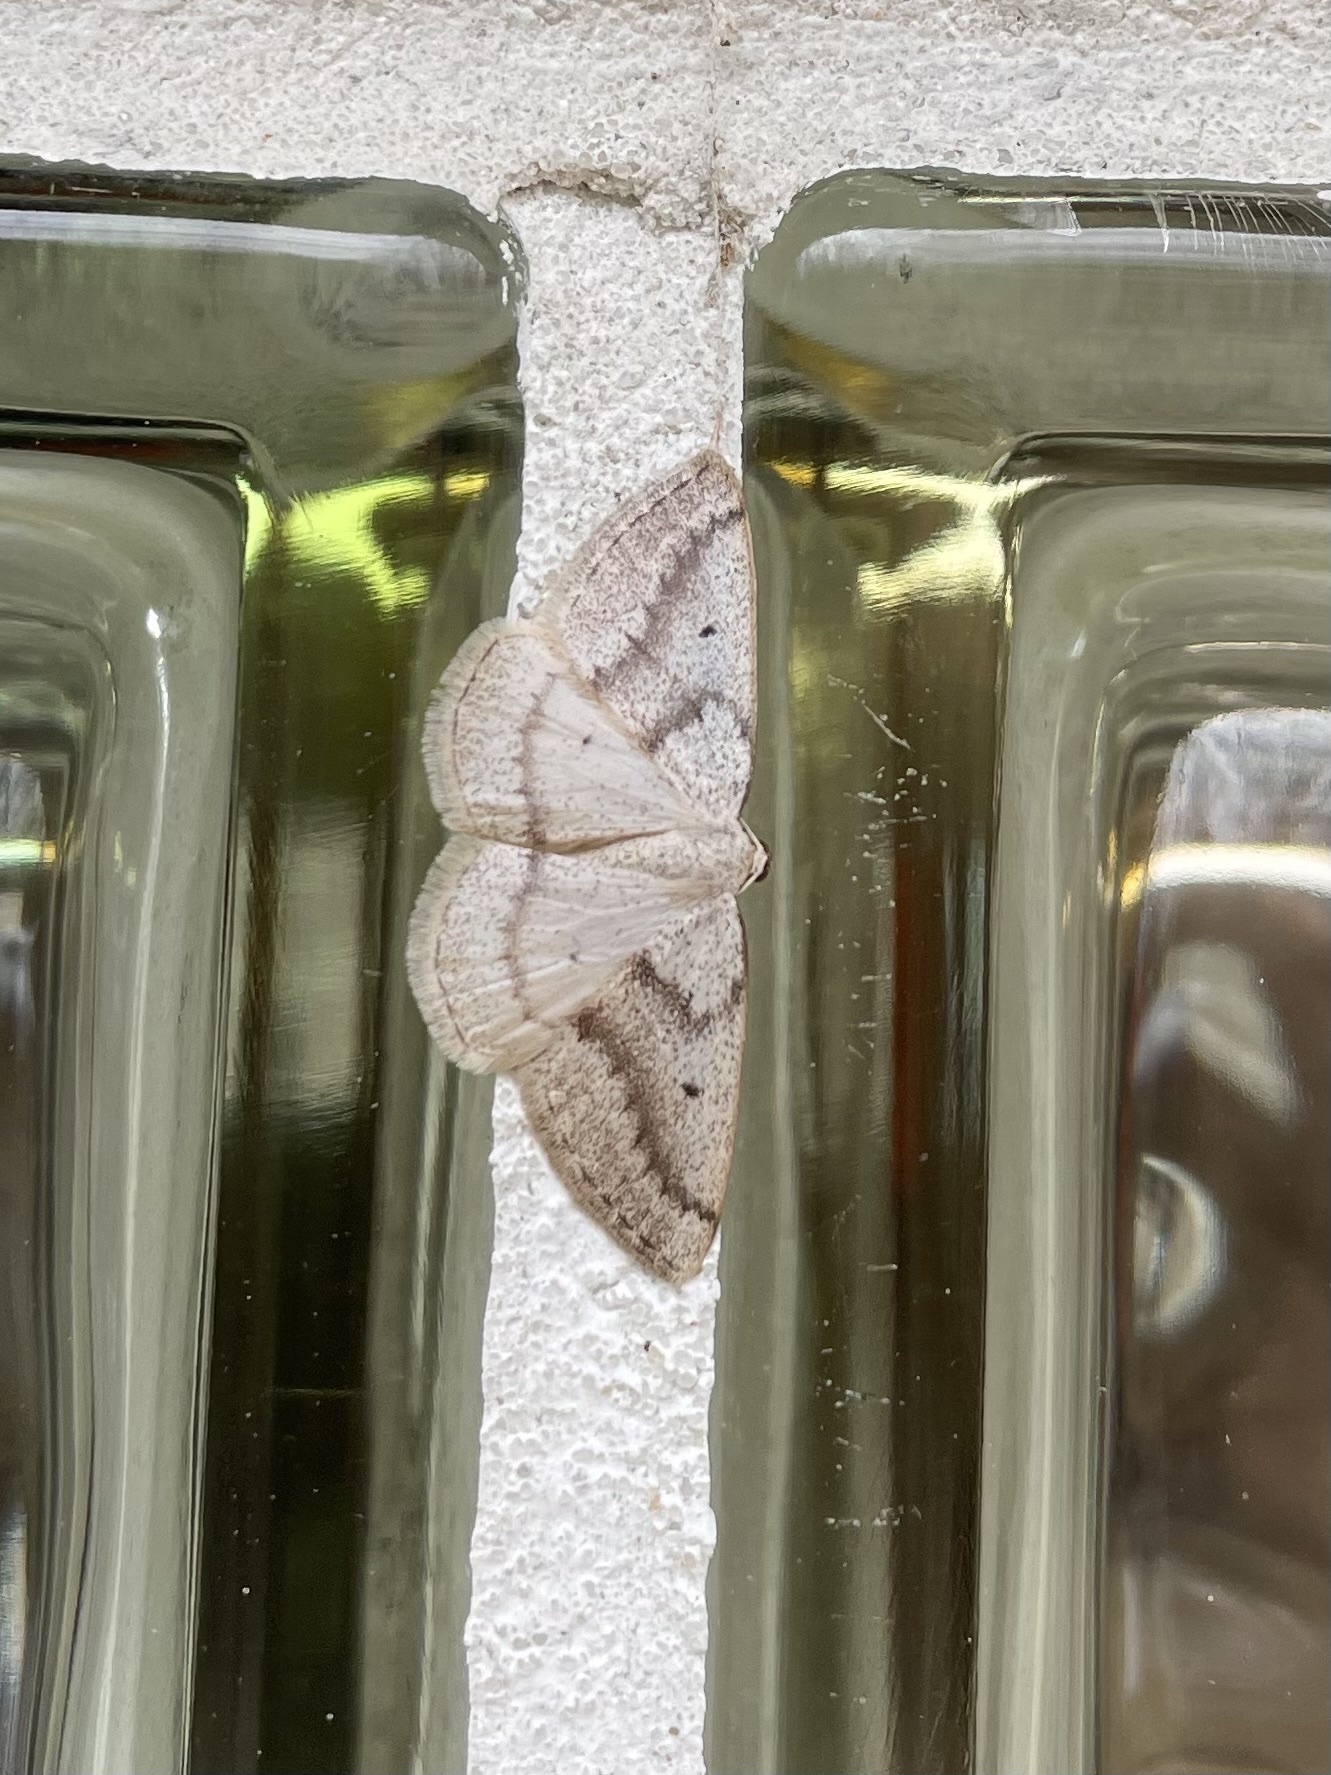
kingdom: Animalia
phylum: Arthropoda
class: Insecta
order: Lepidoptera
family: Geometridae
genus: Lomographa
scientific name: Lomographa glomeraria
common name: Gray spring moth
